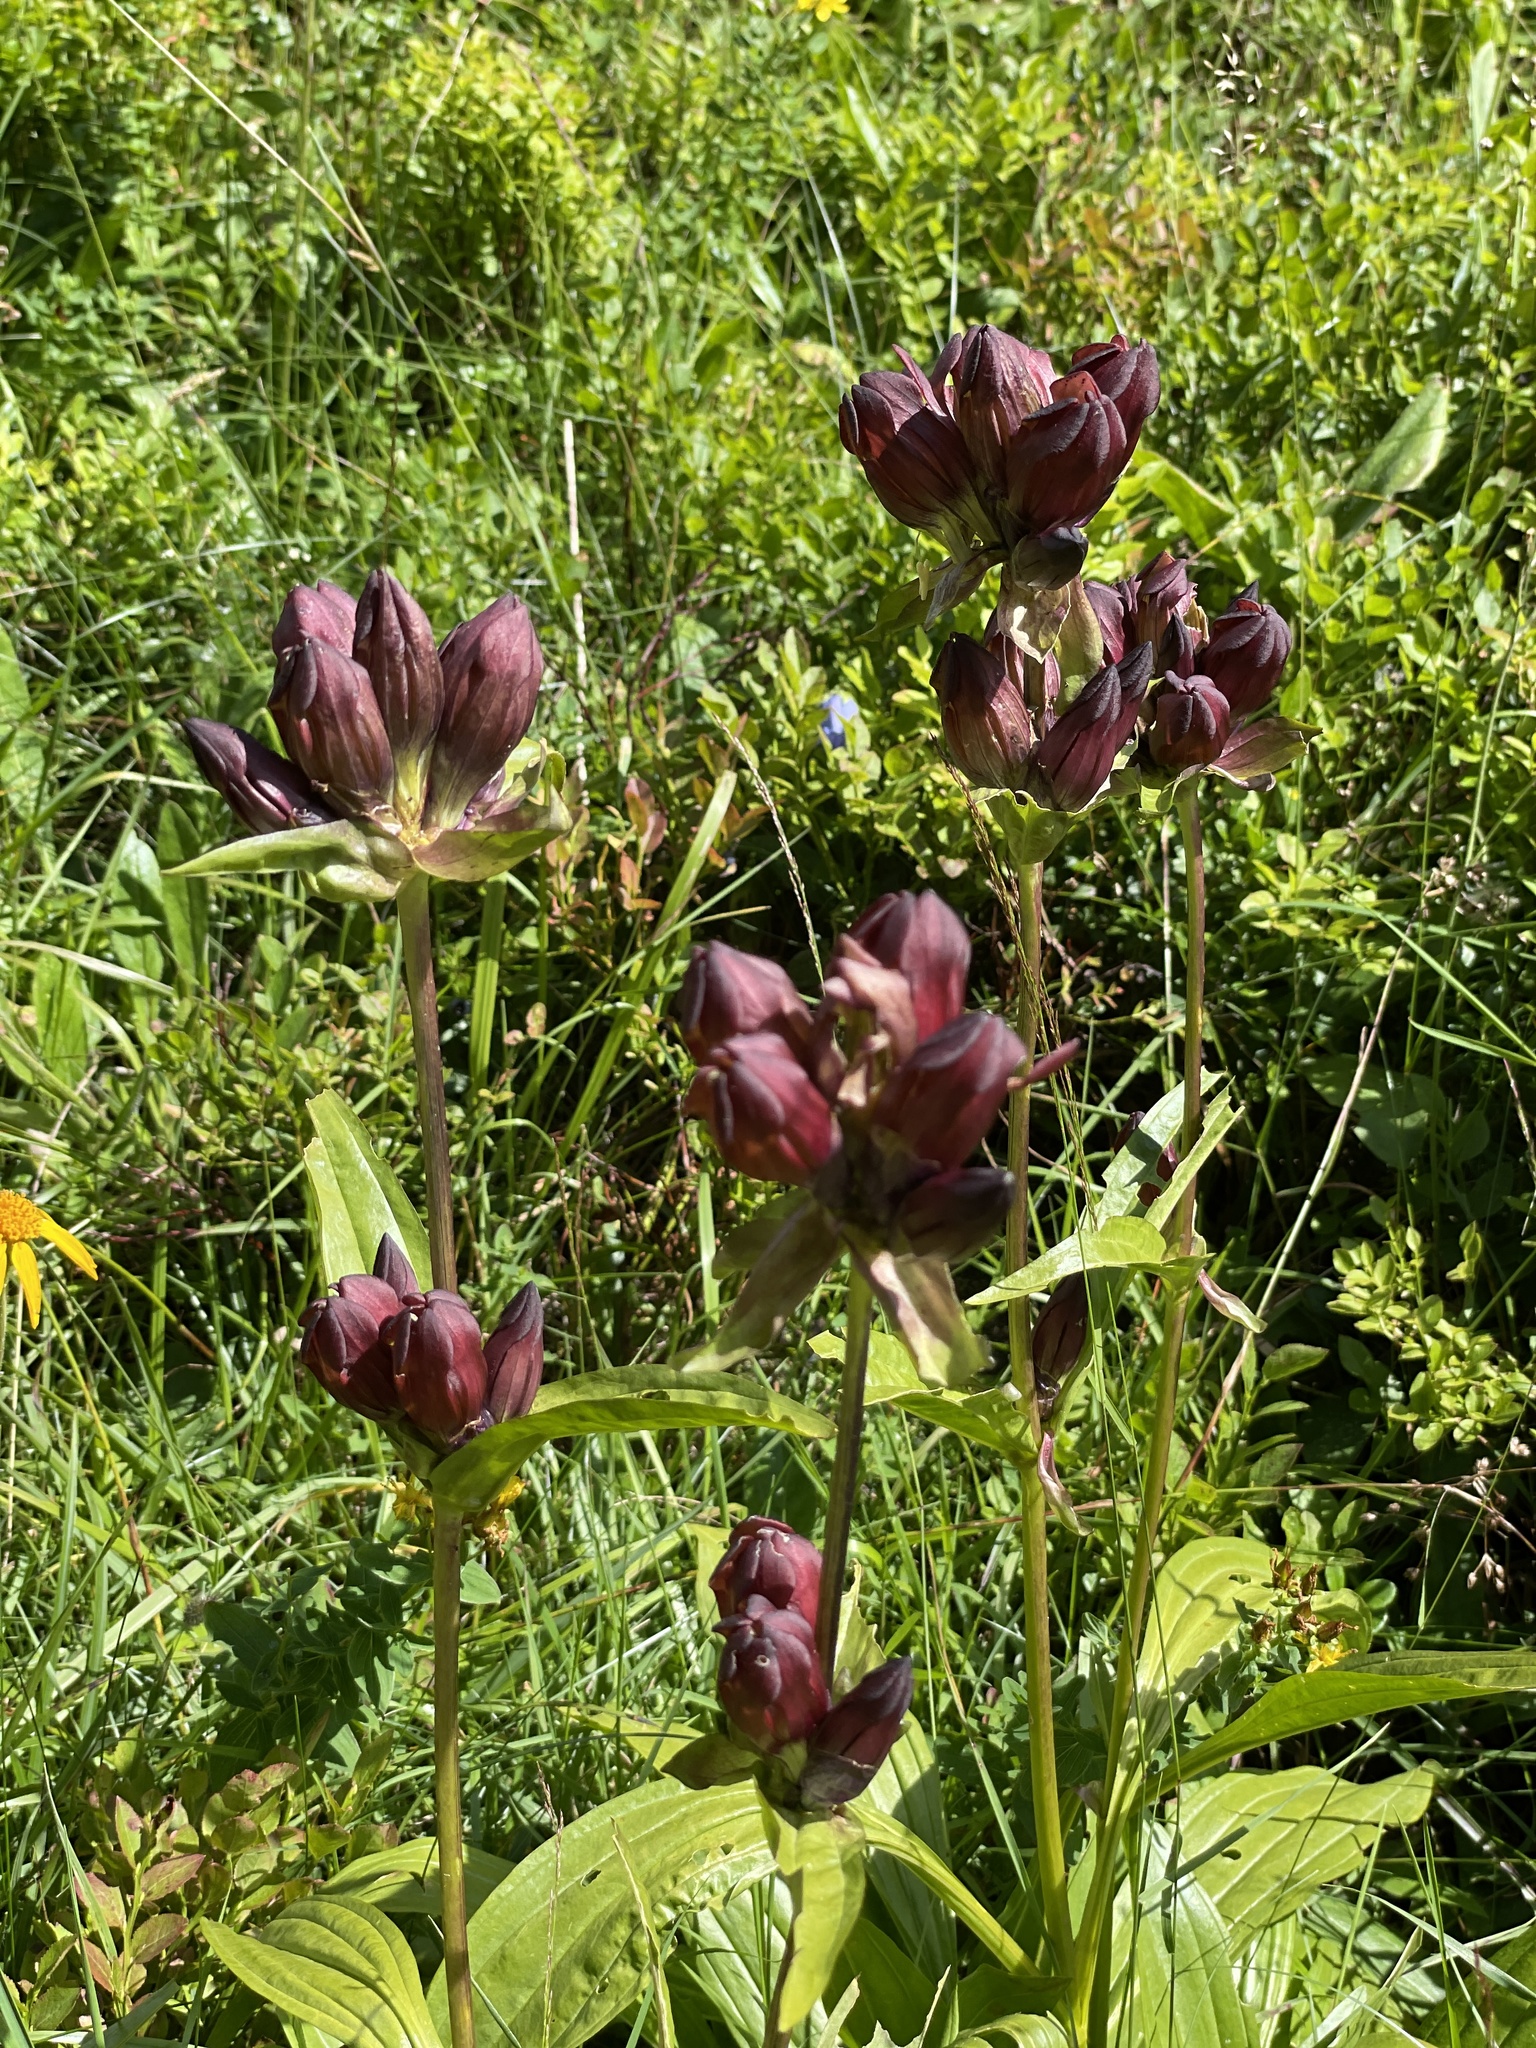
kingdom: Plantae
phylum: Tracheophyta
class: Magnoliopsida
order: Gentianales
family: Gentianaceae
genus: Gentiana
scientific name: Gentiana purpurea
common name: Purple gentian
